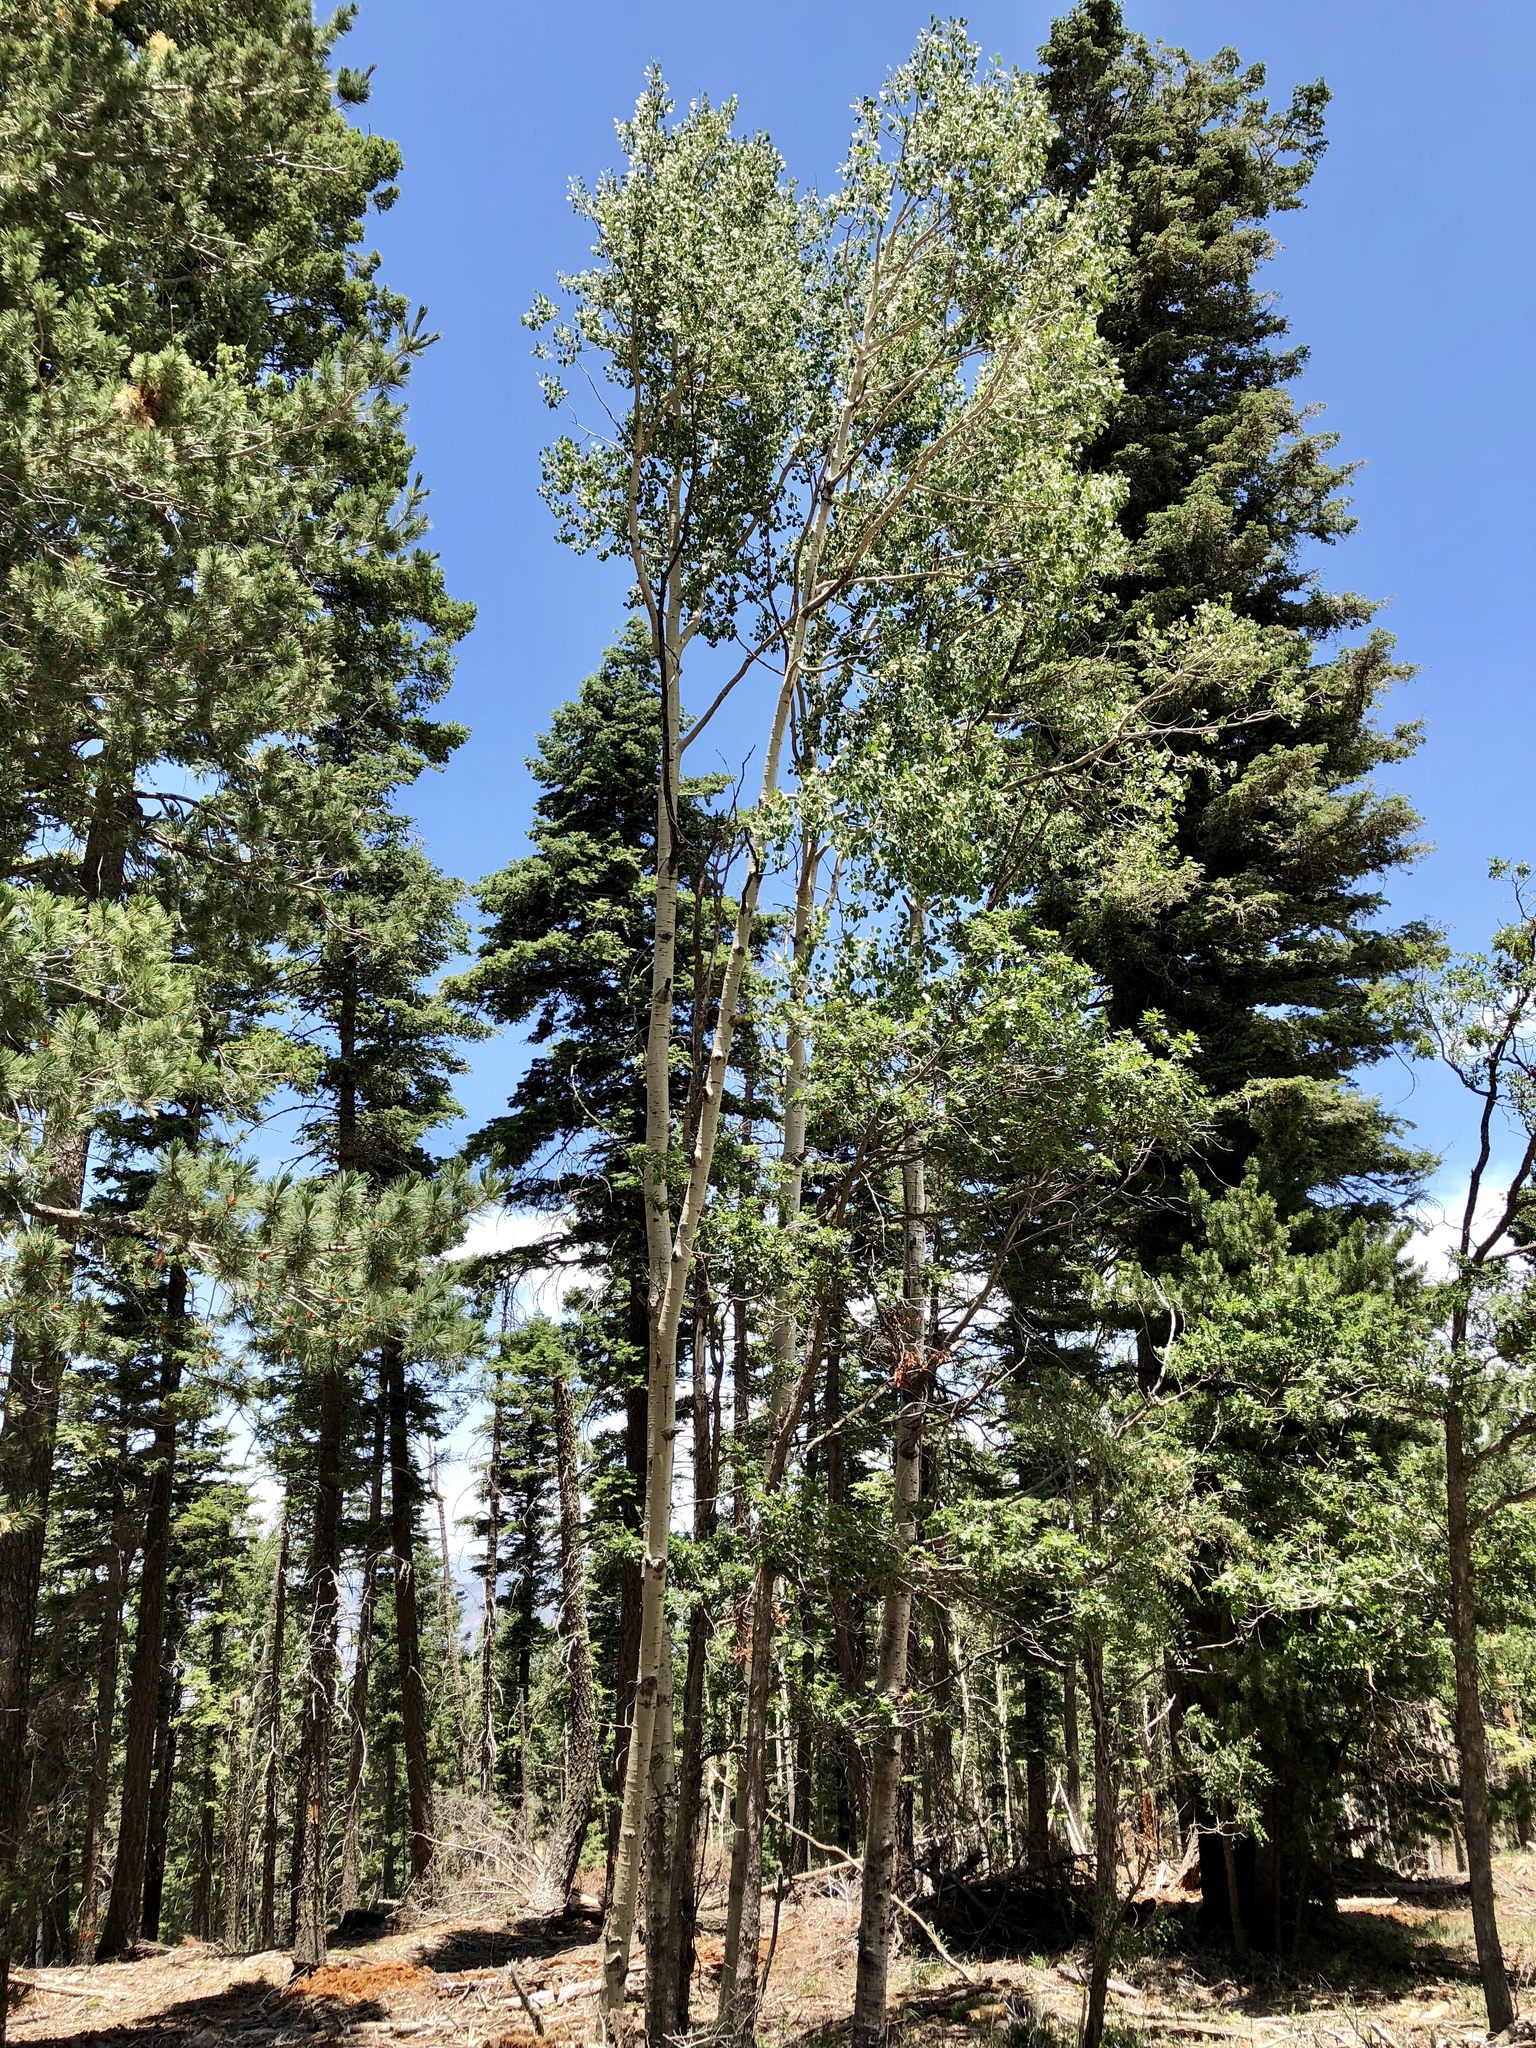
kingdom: Plantae
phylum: Tracheophyta
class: Magnoliopsida
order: Malpighiales
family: Salicaceae
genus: Populus
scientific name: Populus tremuloides
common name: Quaking aspen
